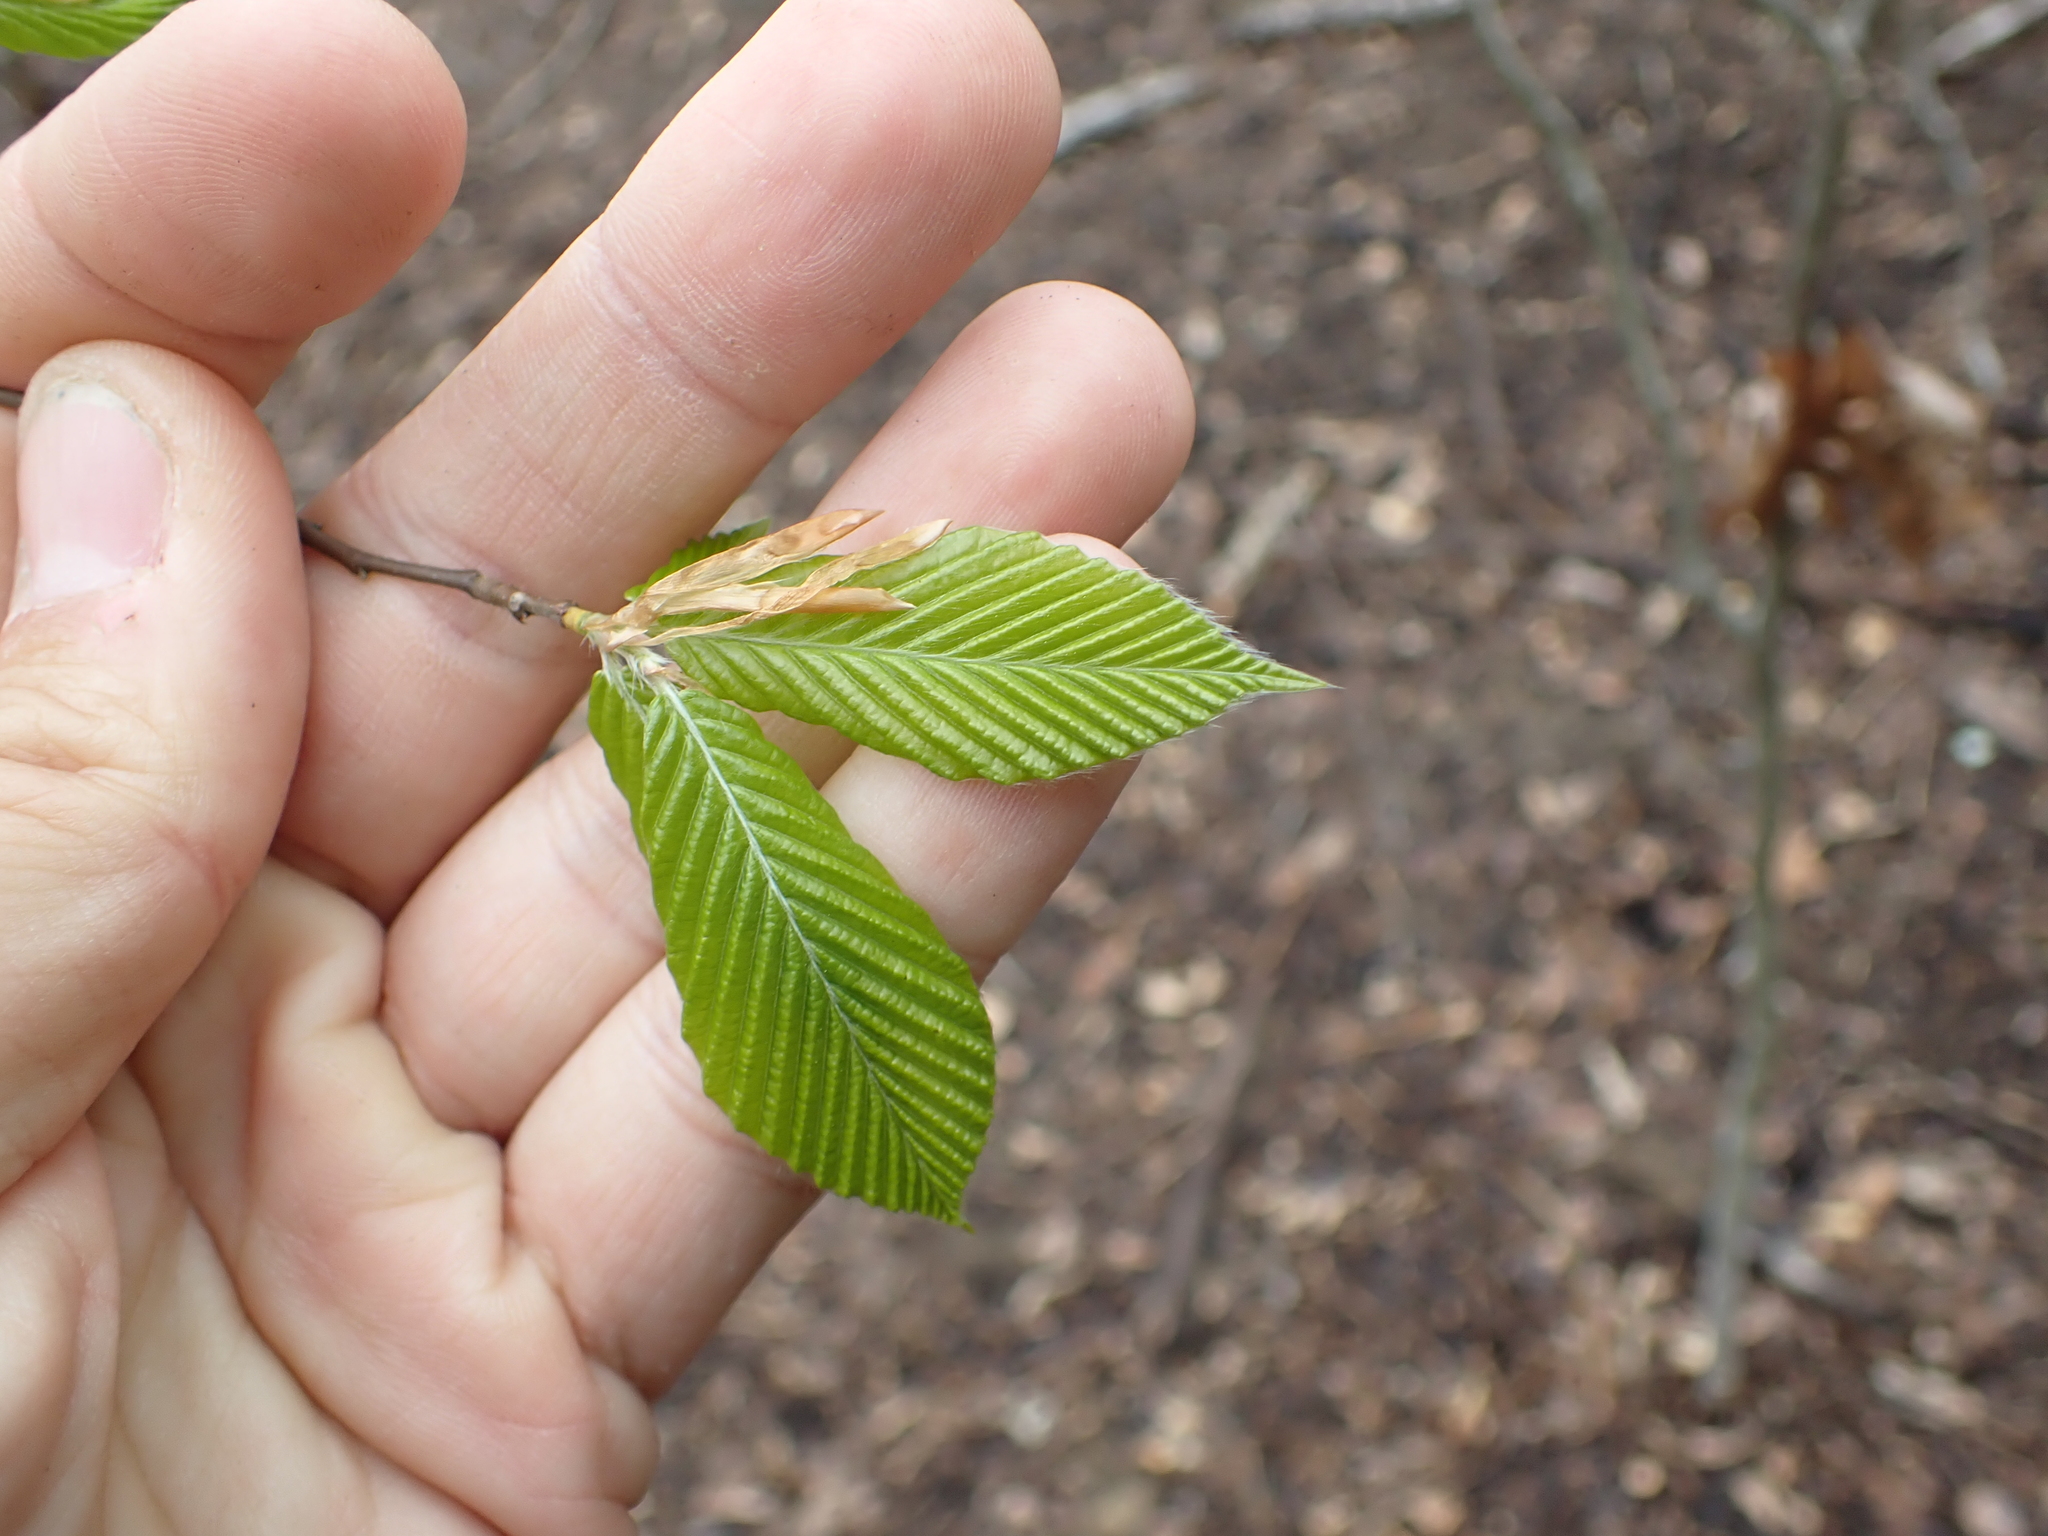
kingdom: Plantae
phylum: Tracheophyta
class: Magnoliopsida
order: Fagales
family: Fagaceae
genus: Fagus
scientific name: Fagus grandifolia
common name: American beech
